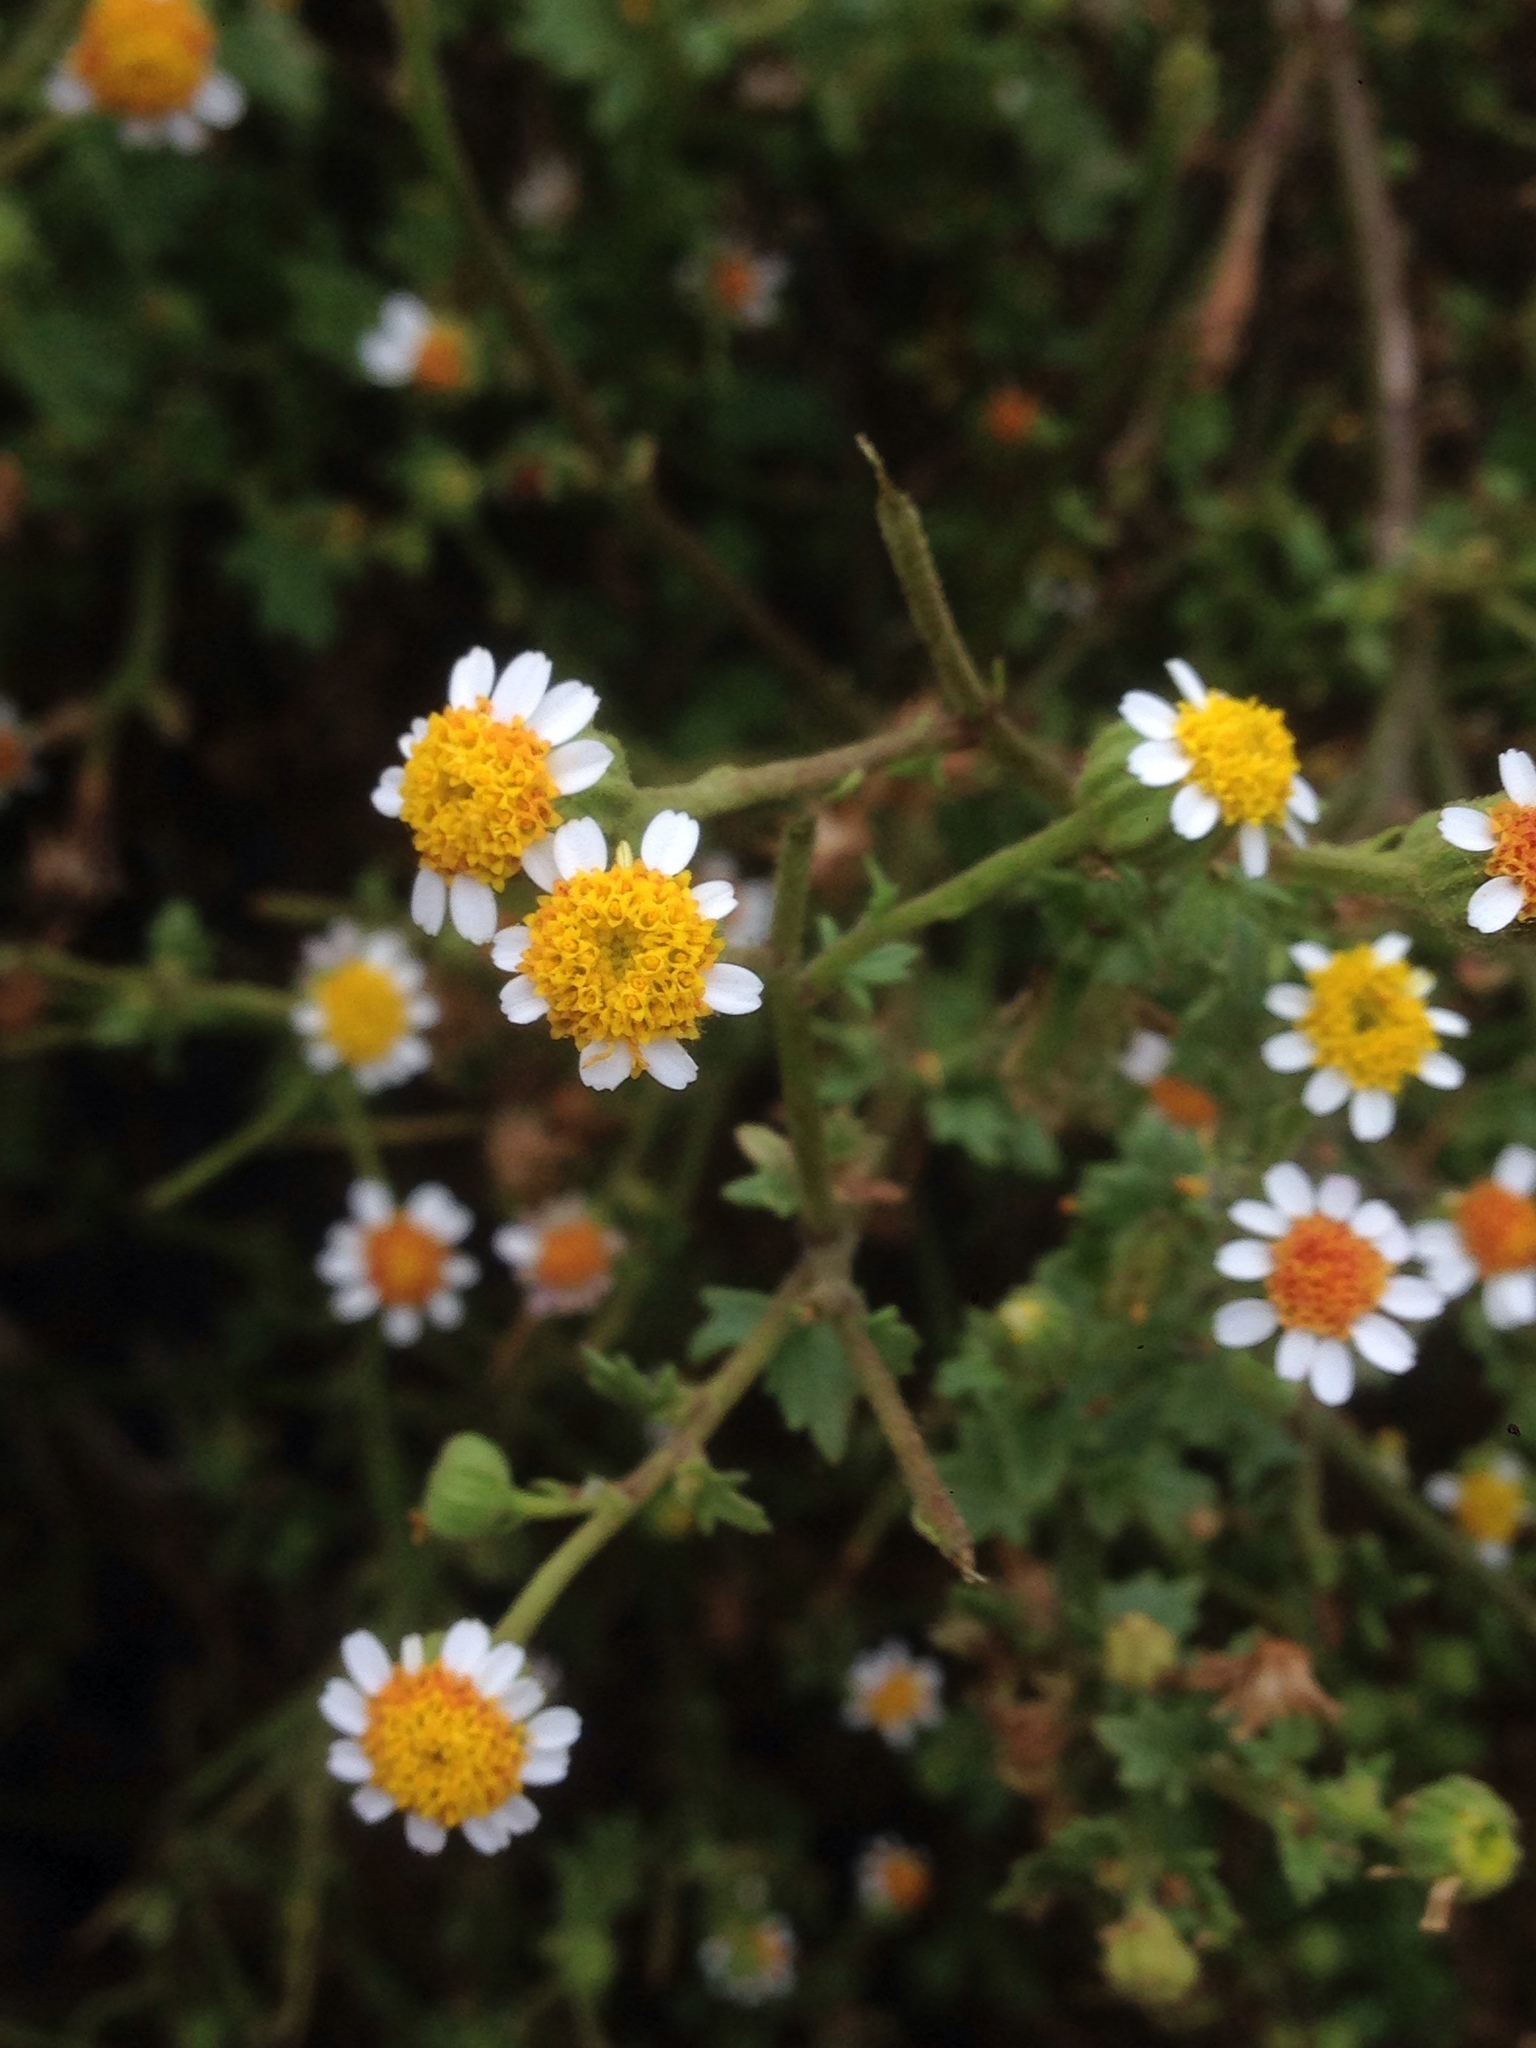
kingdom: Plantae
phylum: Tracheophyta
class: Magnoliopsida
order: Asterales
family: Asteraceae
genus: Laphamia
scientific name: Laphamia emoryi
